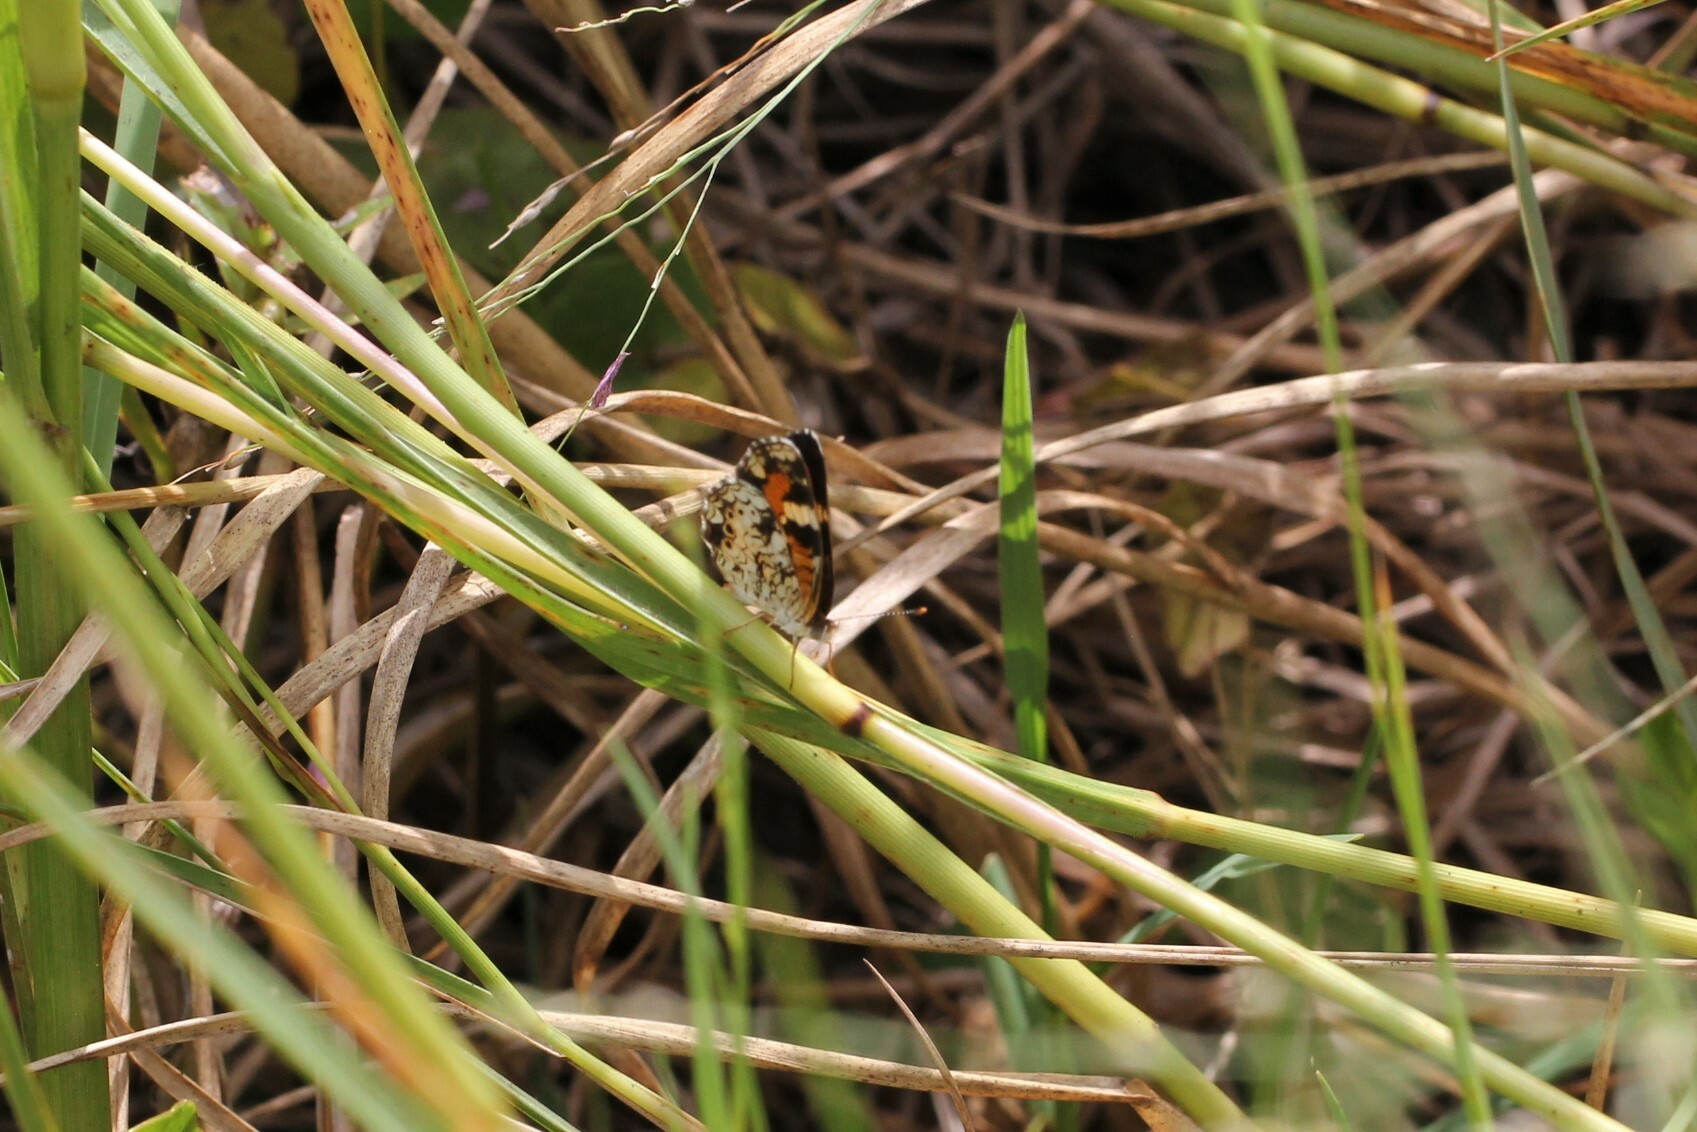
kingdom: Animalia
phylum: Arthropoda
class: Insecta
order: Lepidoptera
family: Nymphalidae
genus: Phyciodes
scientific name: Phyciodes phaon
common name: Phaon crescent
